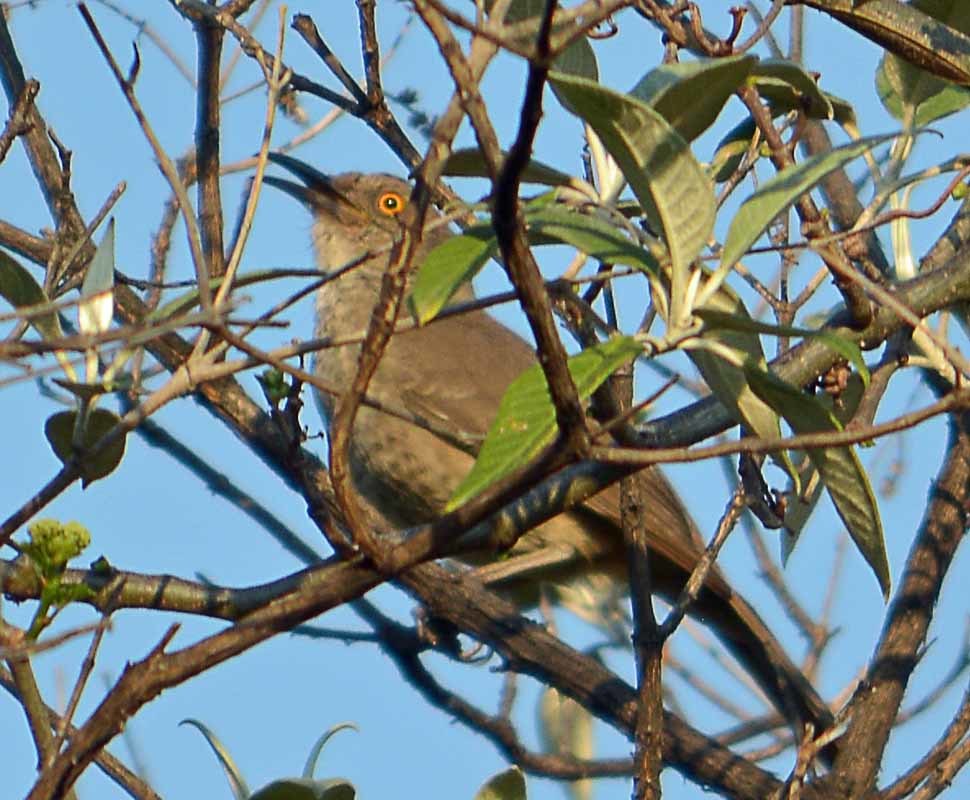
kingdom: Animalia
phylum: Chordata
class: Aves
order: Passeriformes
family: Mimidae
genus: Toxostoma
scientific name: Toxostoma curvirostre
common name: Curve-billed thrasher
